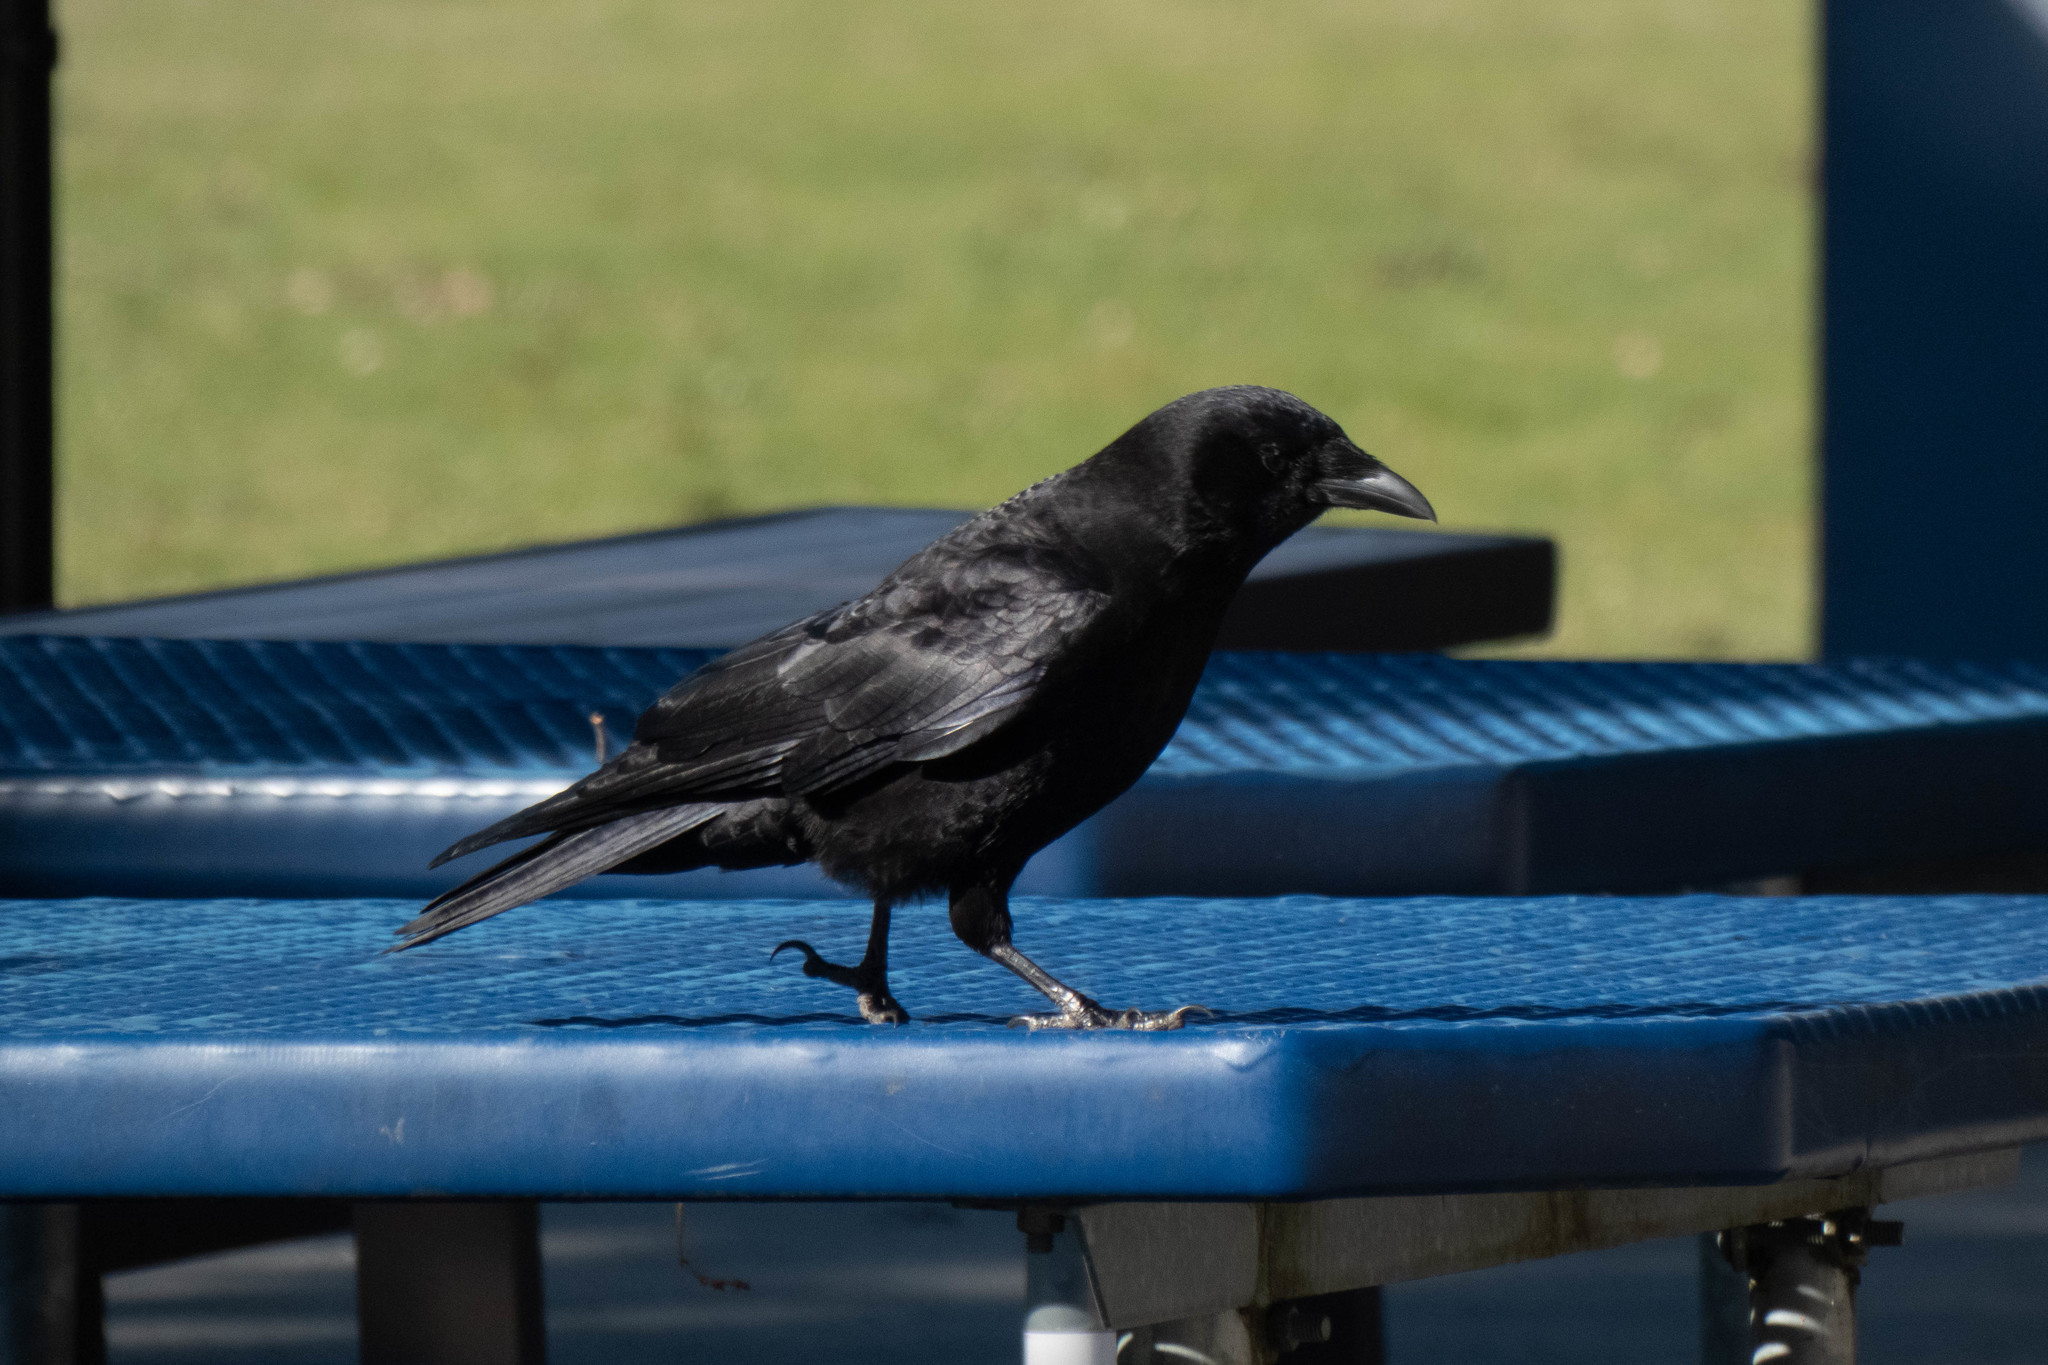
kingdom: Animalia
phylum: Chordata
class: Aves
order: Passeriformes
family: Corvidae
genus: Corvus
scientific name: Corvus brachyrhynchos
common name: American crow
